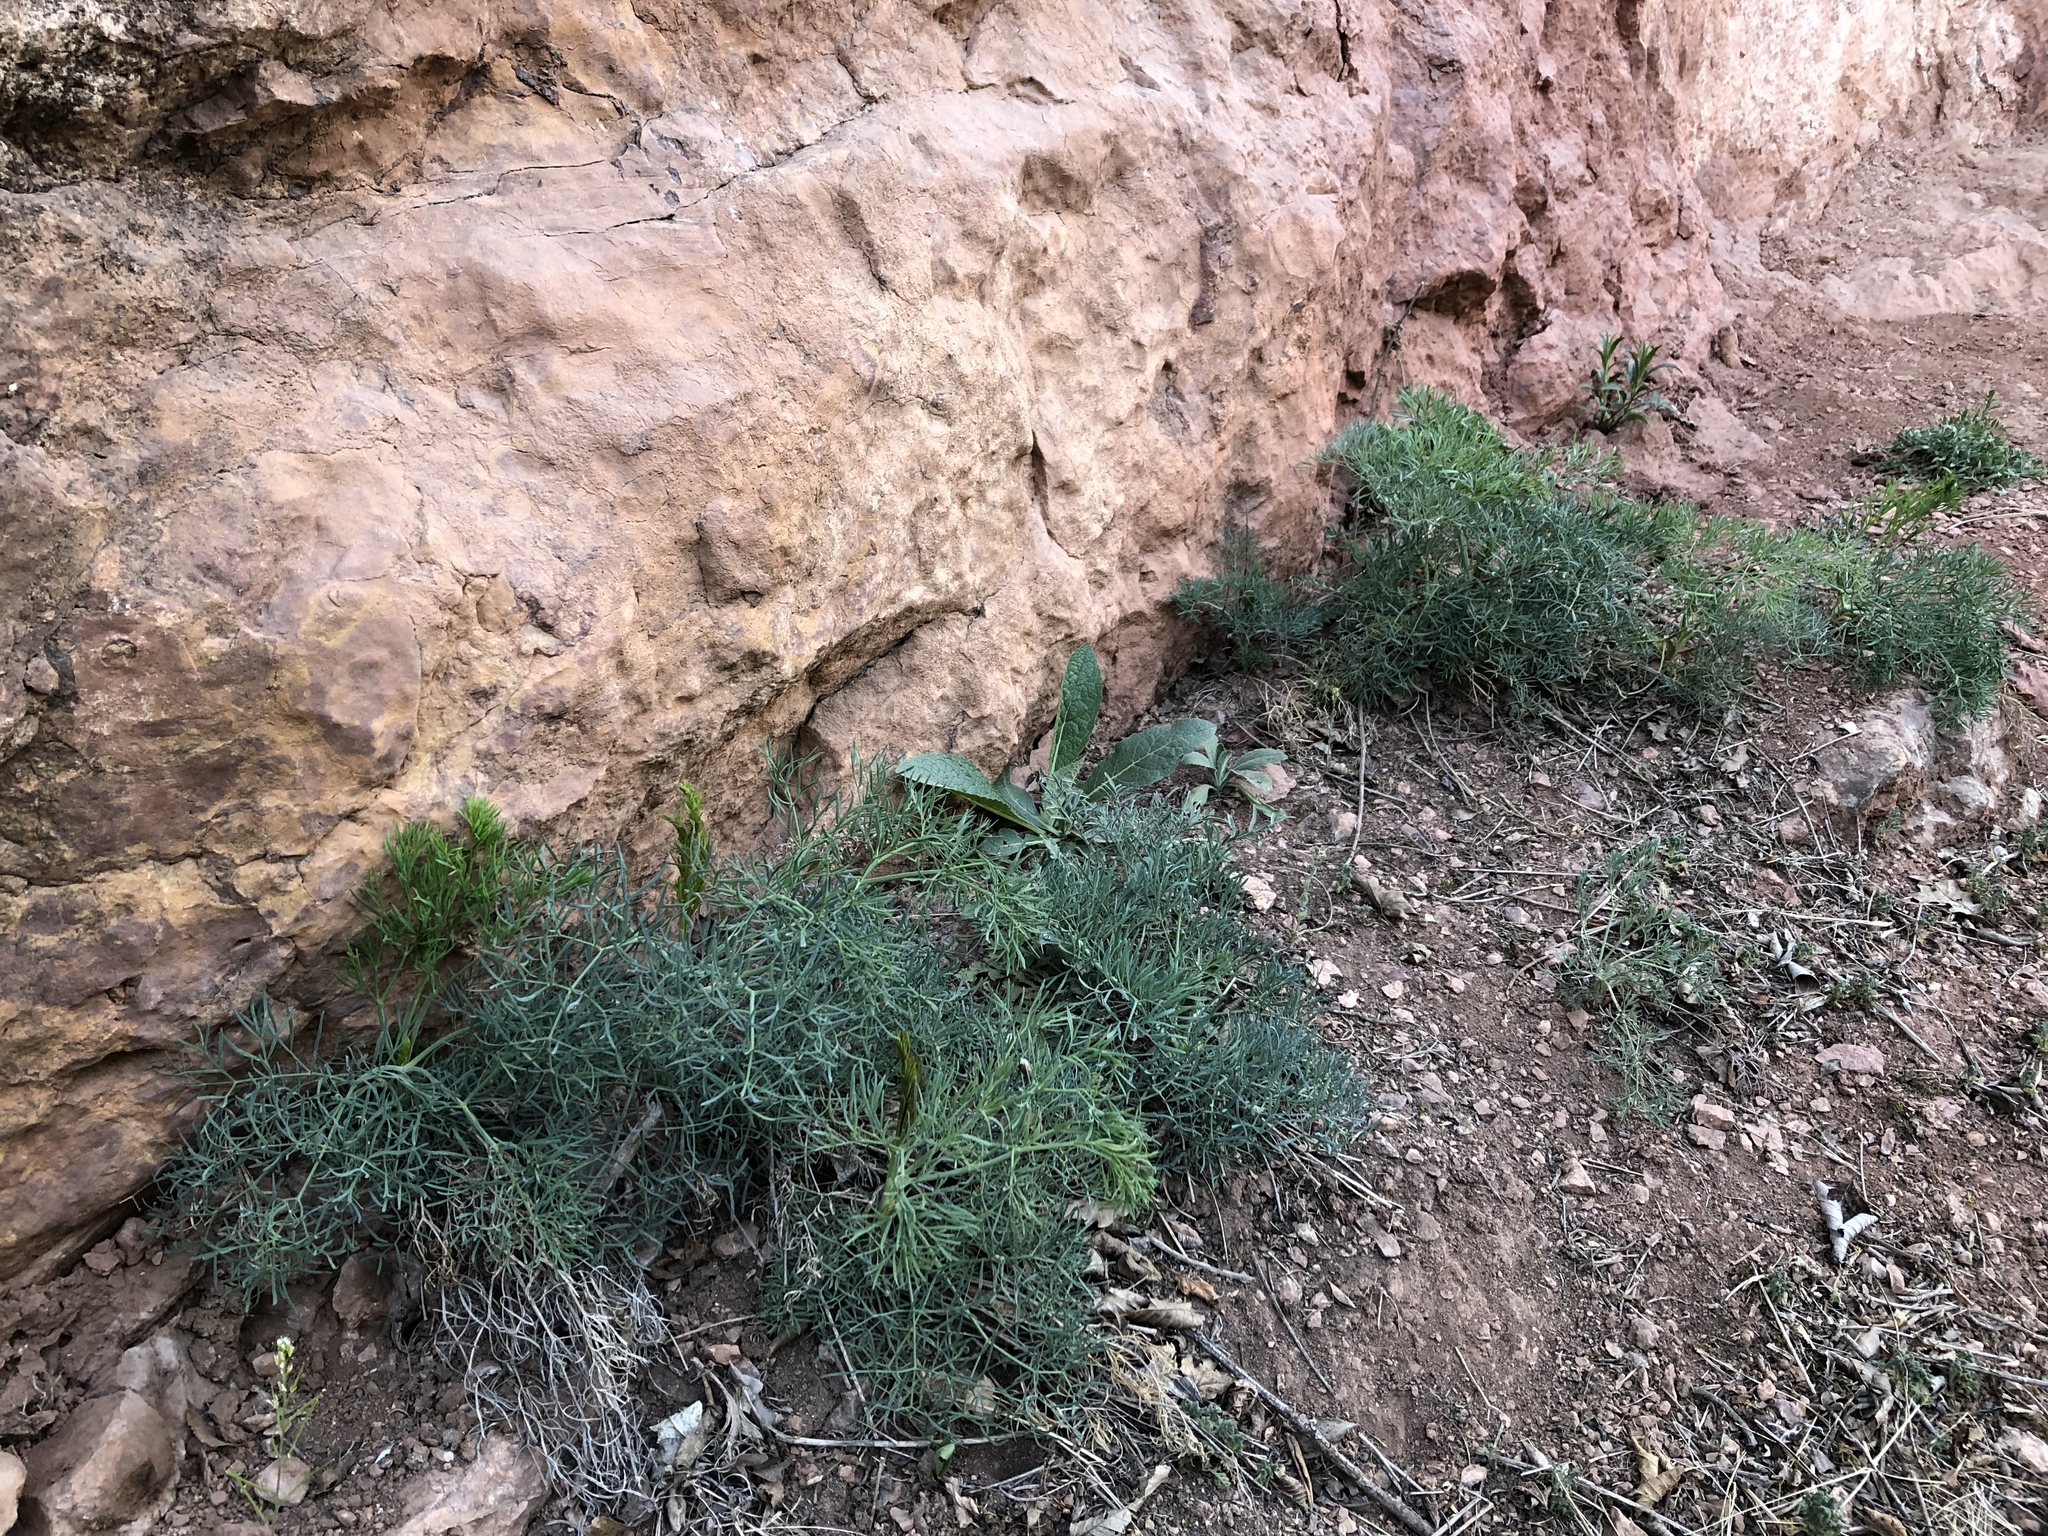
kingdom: Plantae
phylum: Tracheophyta
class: Magnoliopsida
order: Apiales
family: Apiaceae
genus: Seseli
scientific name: Seseli osseum
